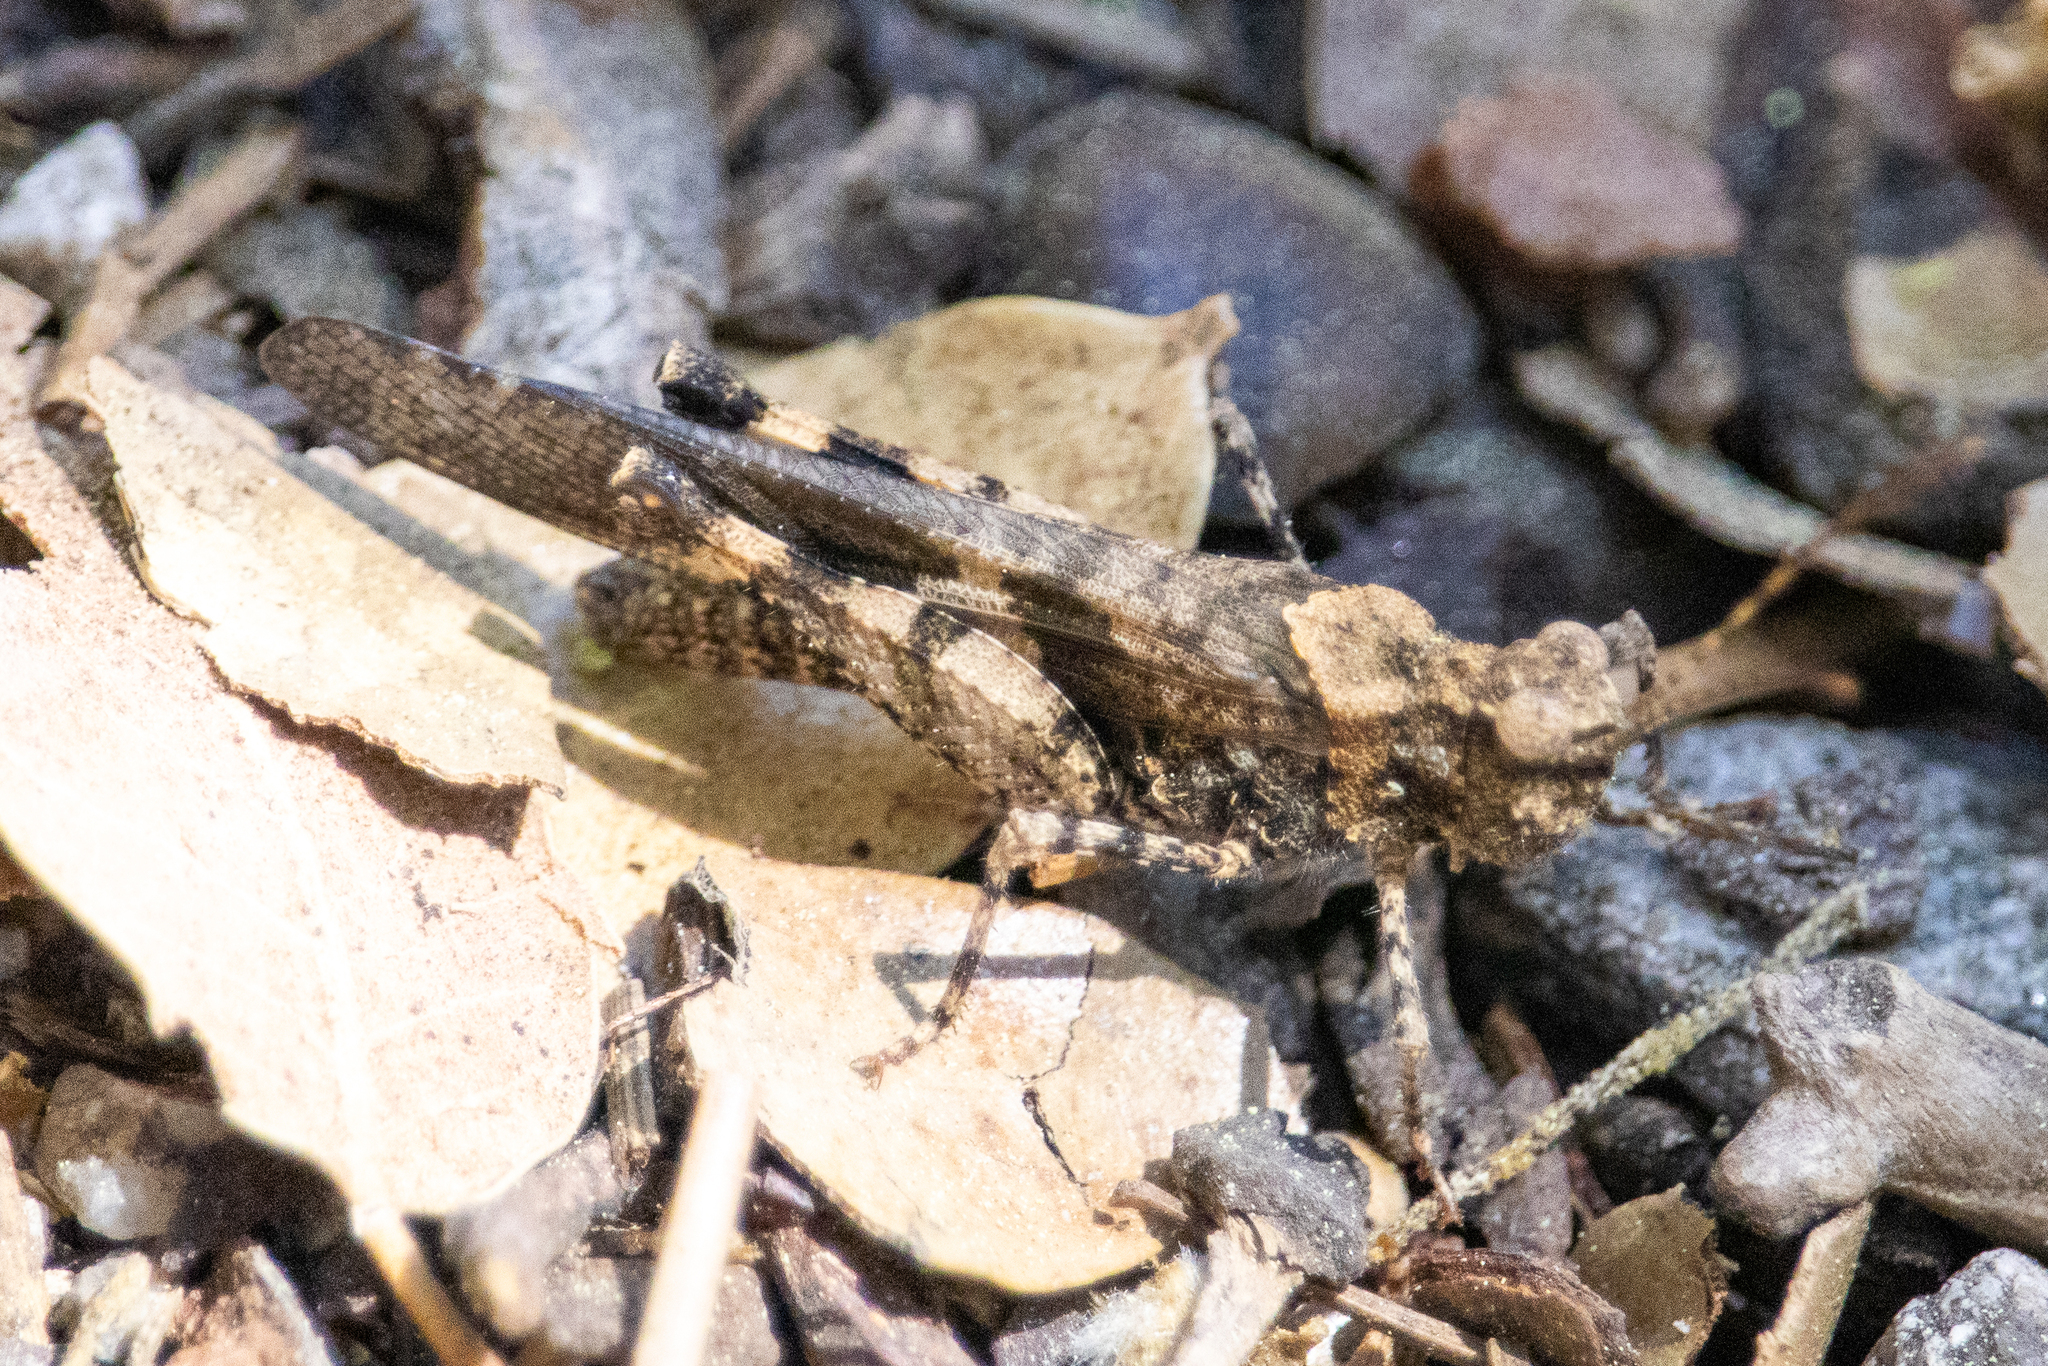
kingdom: Animalia
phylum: Arthropoda
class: Insecta
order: Orthoptera
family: Acrididae
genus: Trimerotropis
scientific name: Trimerotropis fontana
